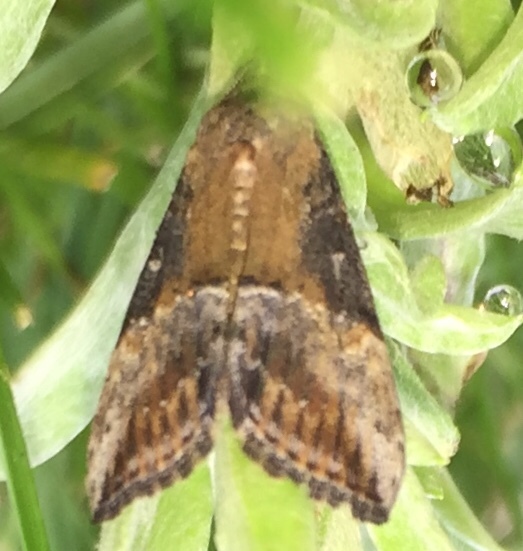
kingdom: Animalia
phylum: Arthropoda
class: Insecta
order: Lepidoptera
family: Erebidae
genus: Hypena
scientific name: Hypena scabra
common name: Green cloverworm
